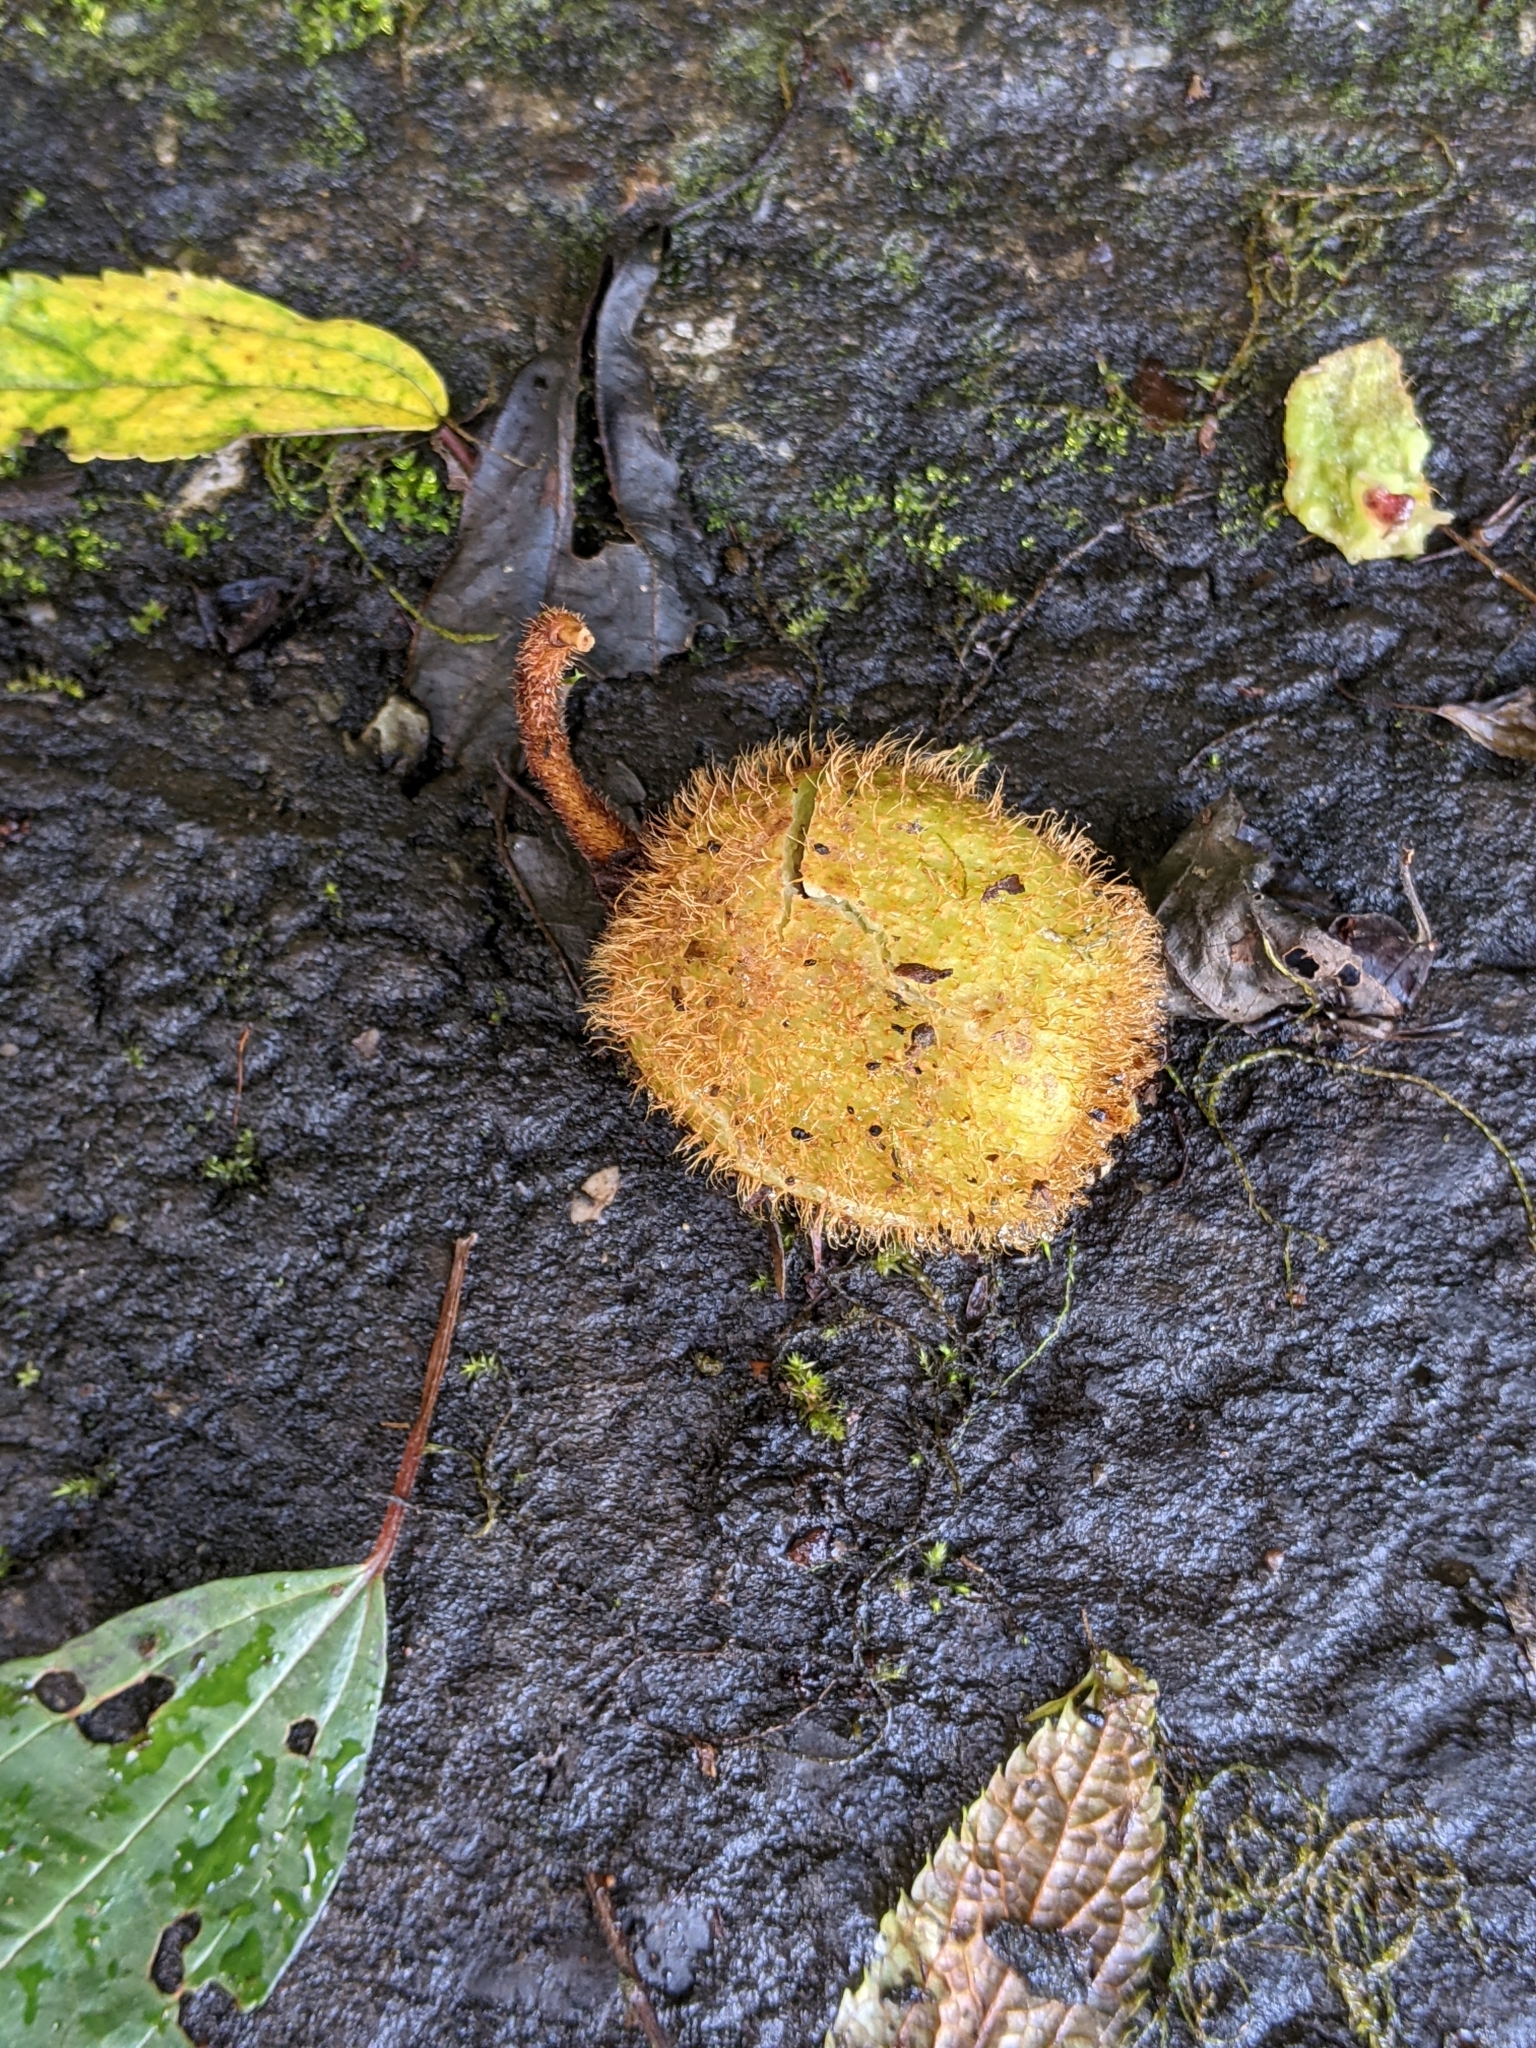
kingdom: Plantae
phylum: Tracheophyta
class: Magnoliopsida
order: Ericales
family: Actinidiaceae
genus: Actinidia
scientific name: Actinidia chinensis
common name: Kiwi
